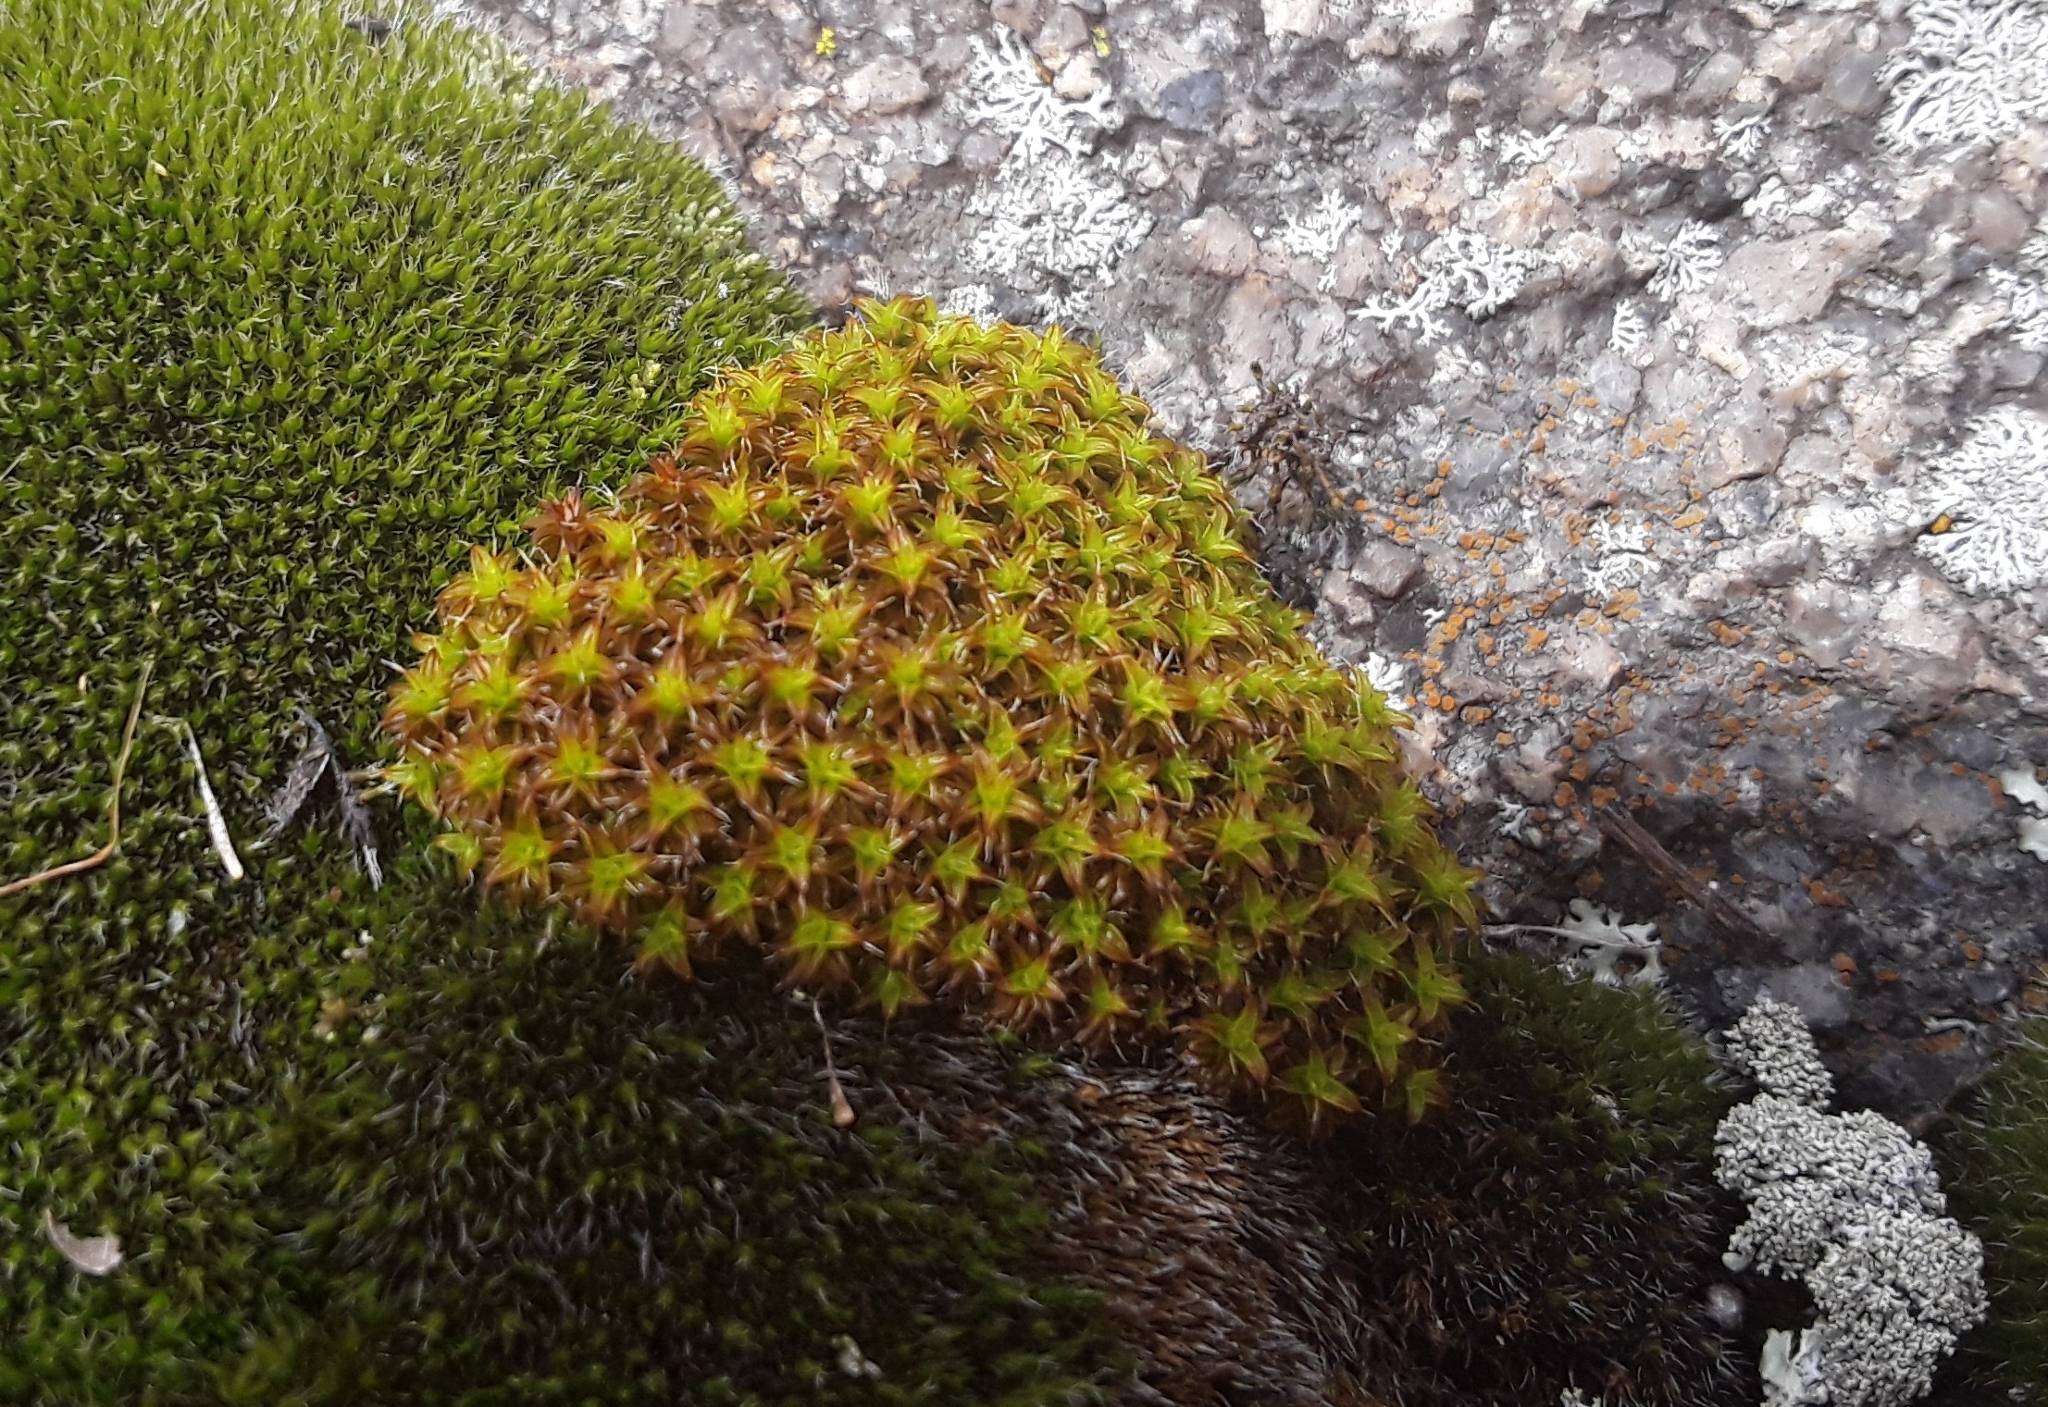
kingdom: Plantae
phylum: Bryophyta
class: Bryopsida
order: Pottiales
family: Pottiaceae
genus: Syntrichia
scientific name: Syntrichia ruralis
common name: Sidewalk screw moss
